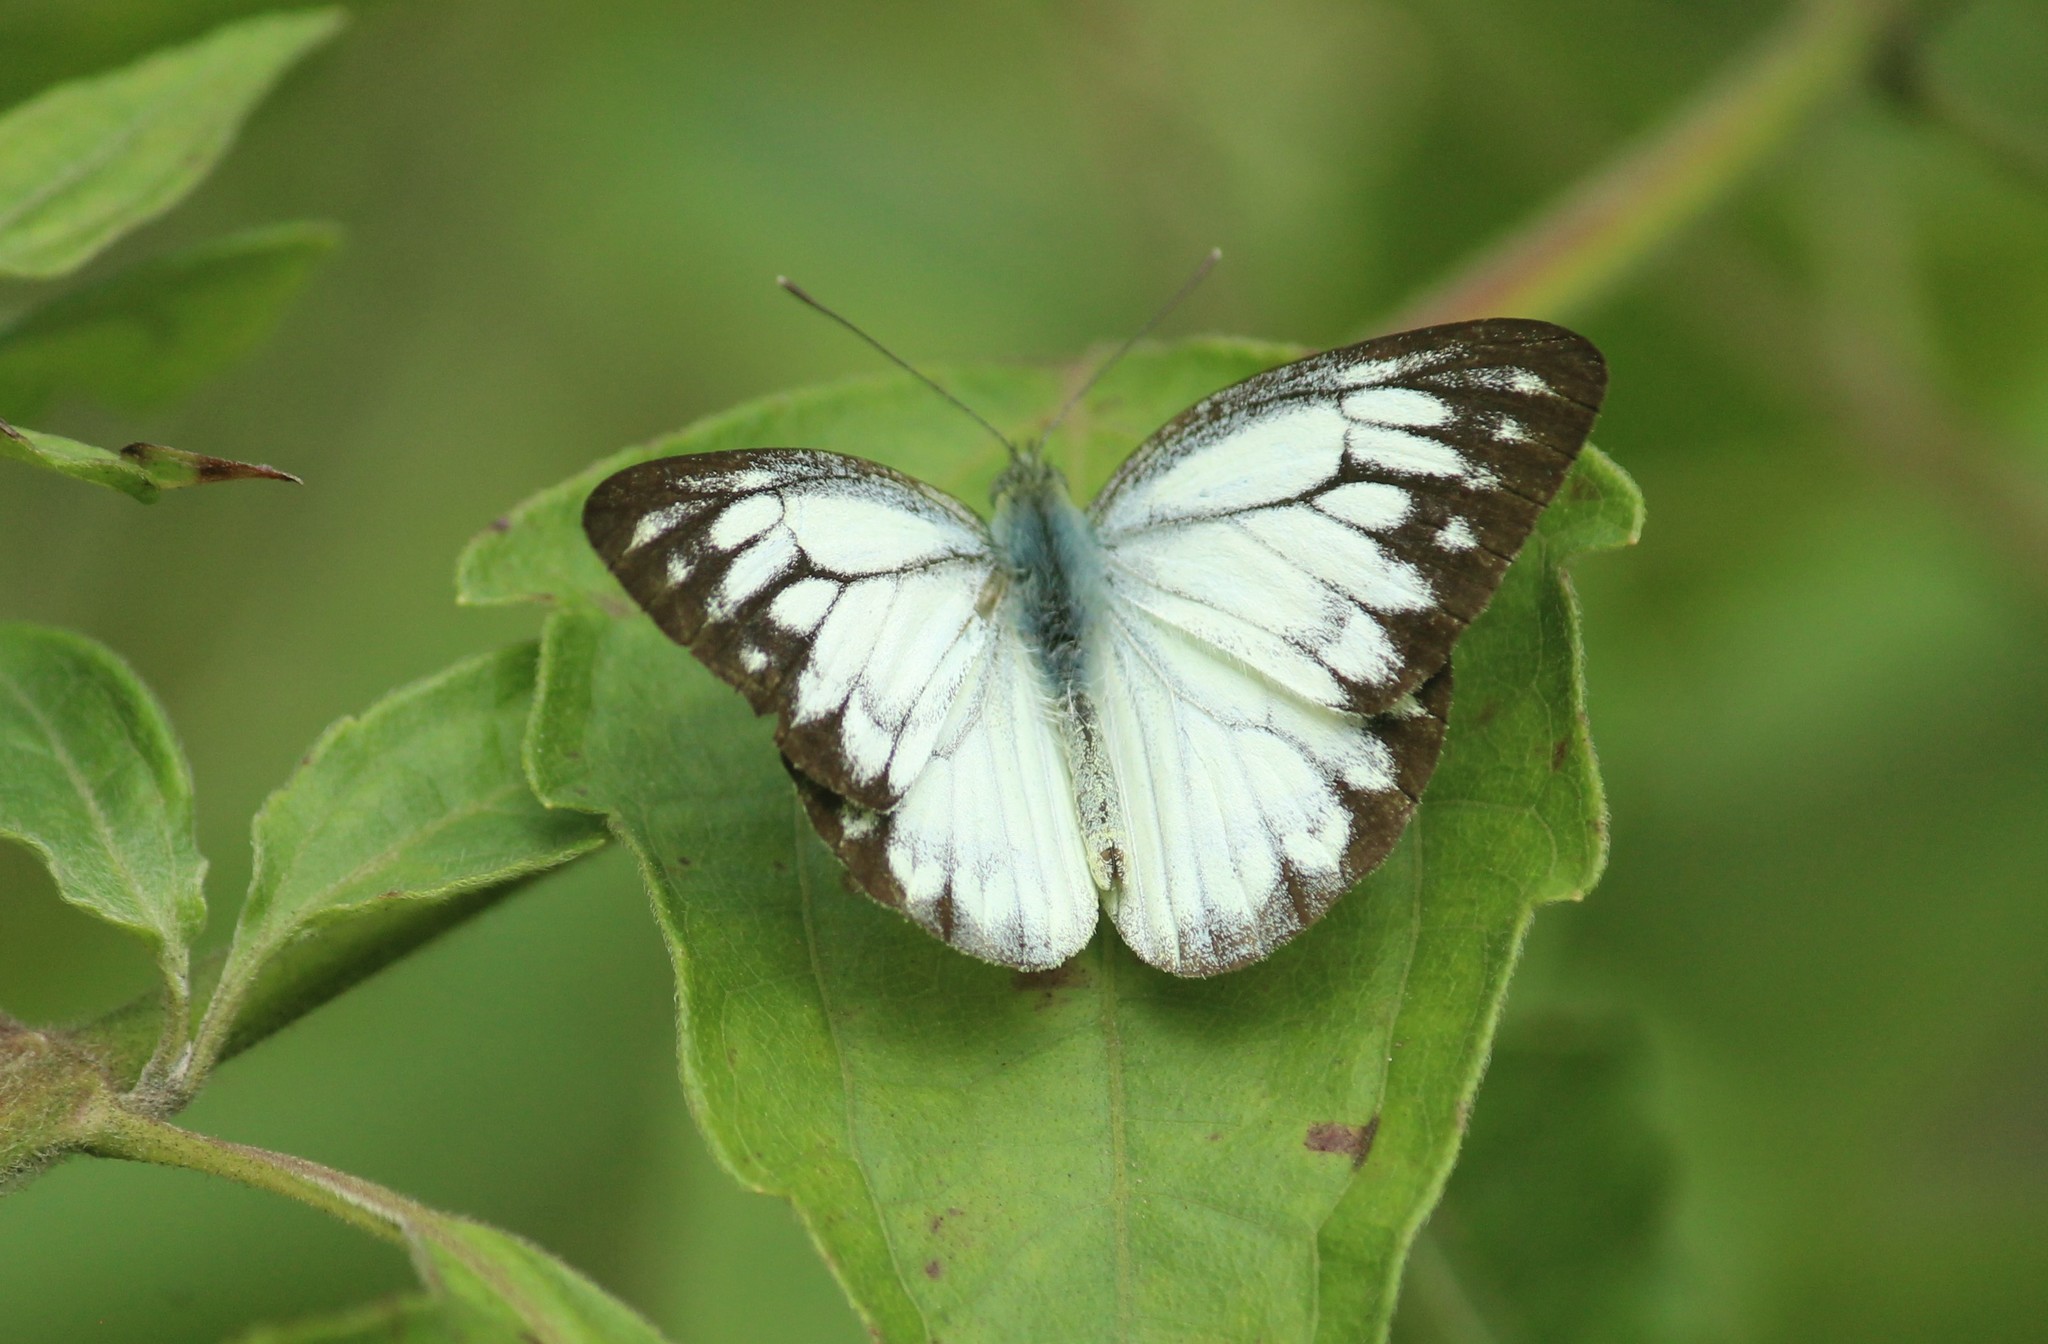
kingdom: Animalia
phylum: Arthropoda
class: Insecta
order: Lepidoptera
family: Pieridae
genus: Cepora
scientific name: Cepora nerissa
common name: Common gull
